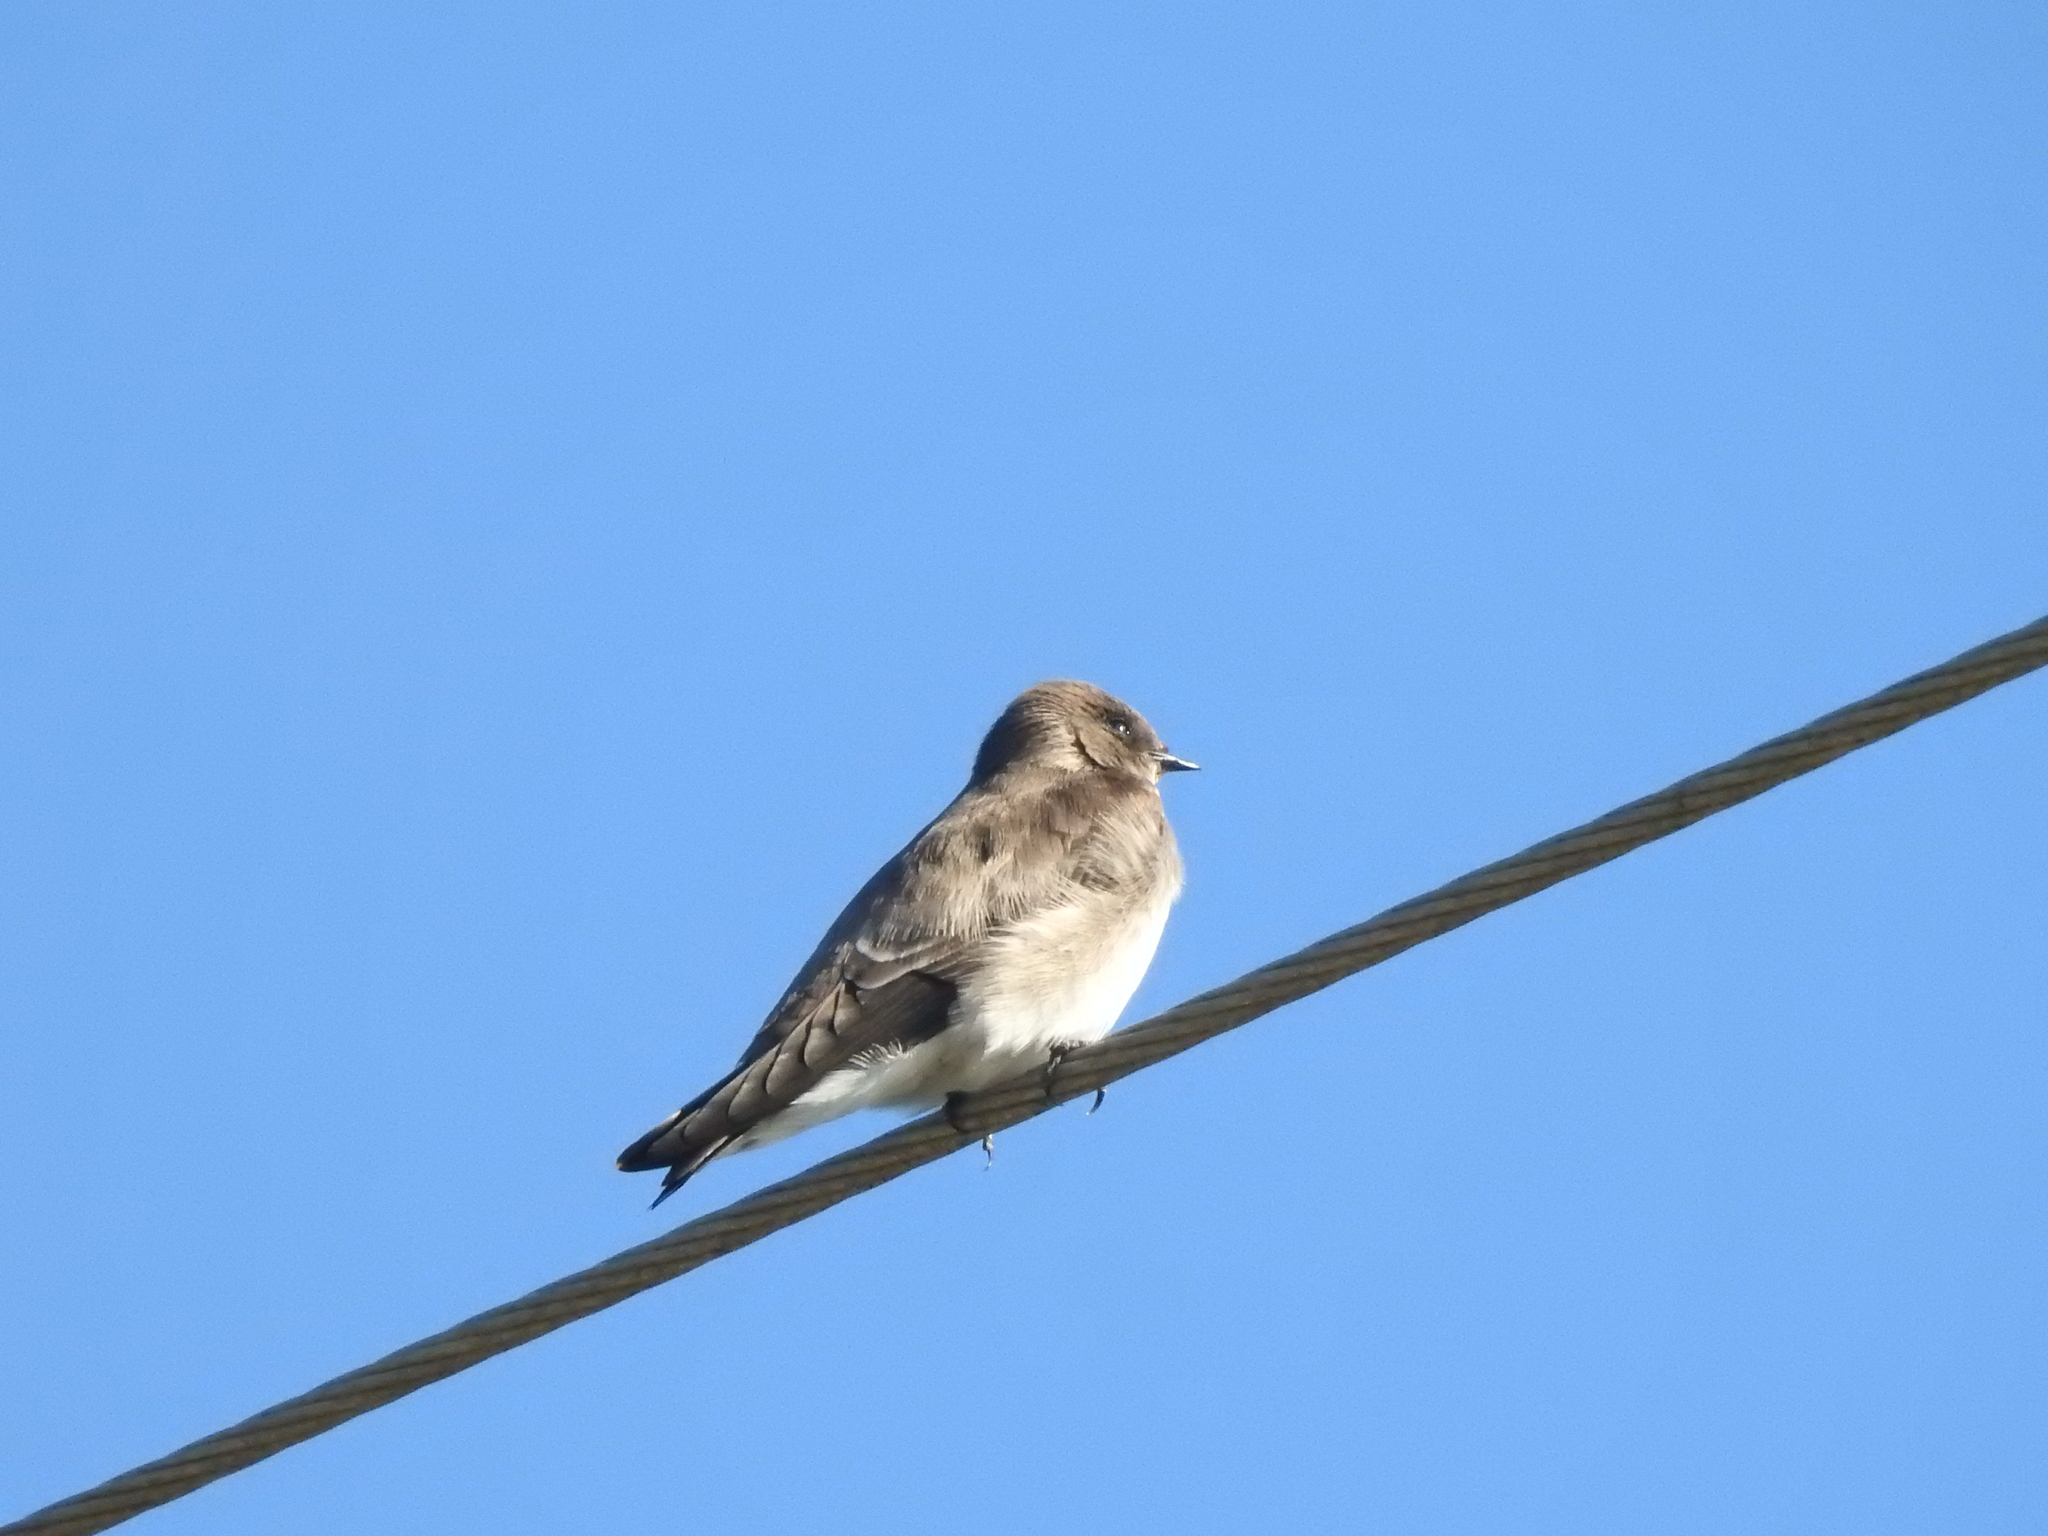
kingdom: Animalia
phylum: Chordata
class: Aves
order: Passeriformes
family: Hirundinidae
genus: Stelgidopteryx
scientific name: Stelgidopteryx serripennis
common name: Northern rough-winged swallow
